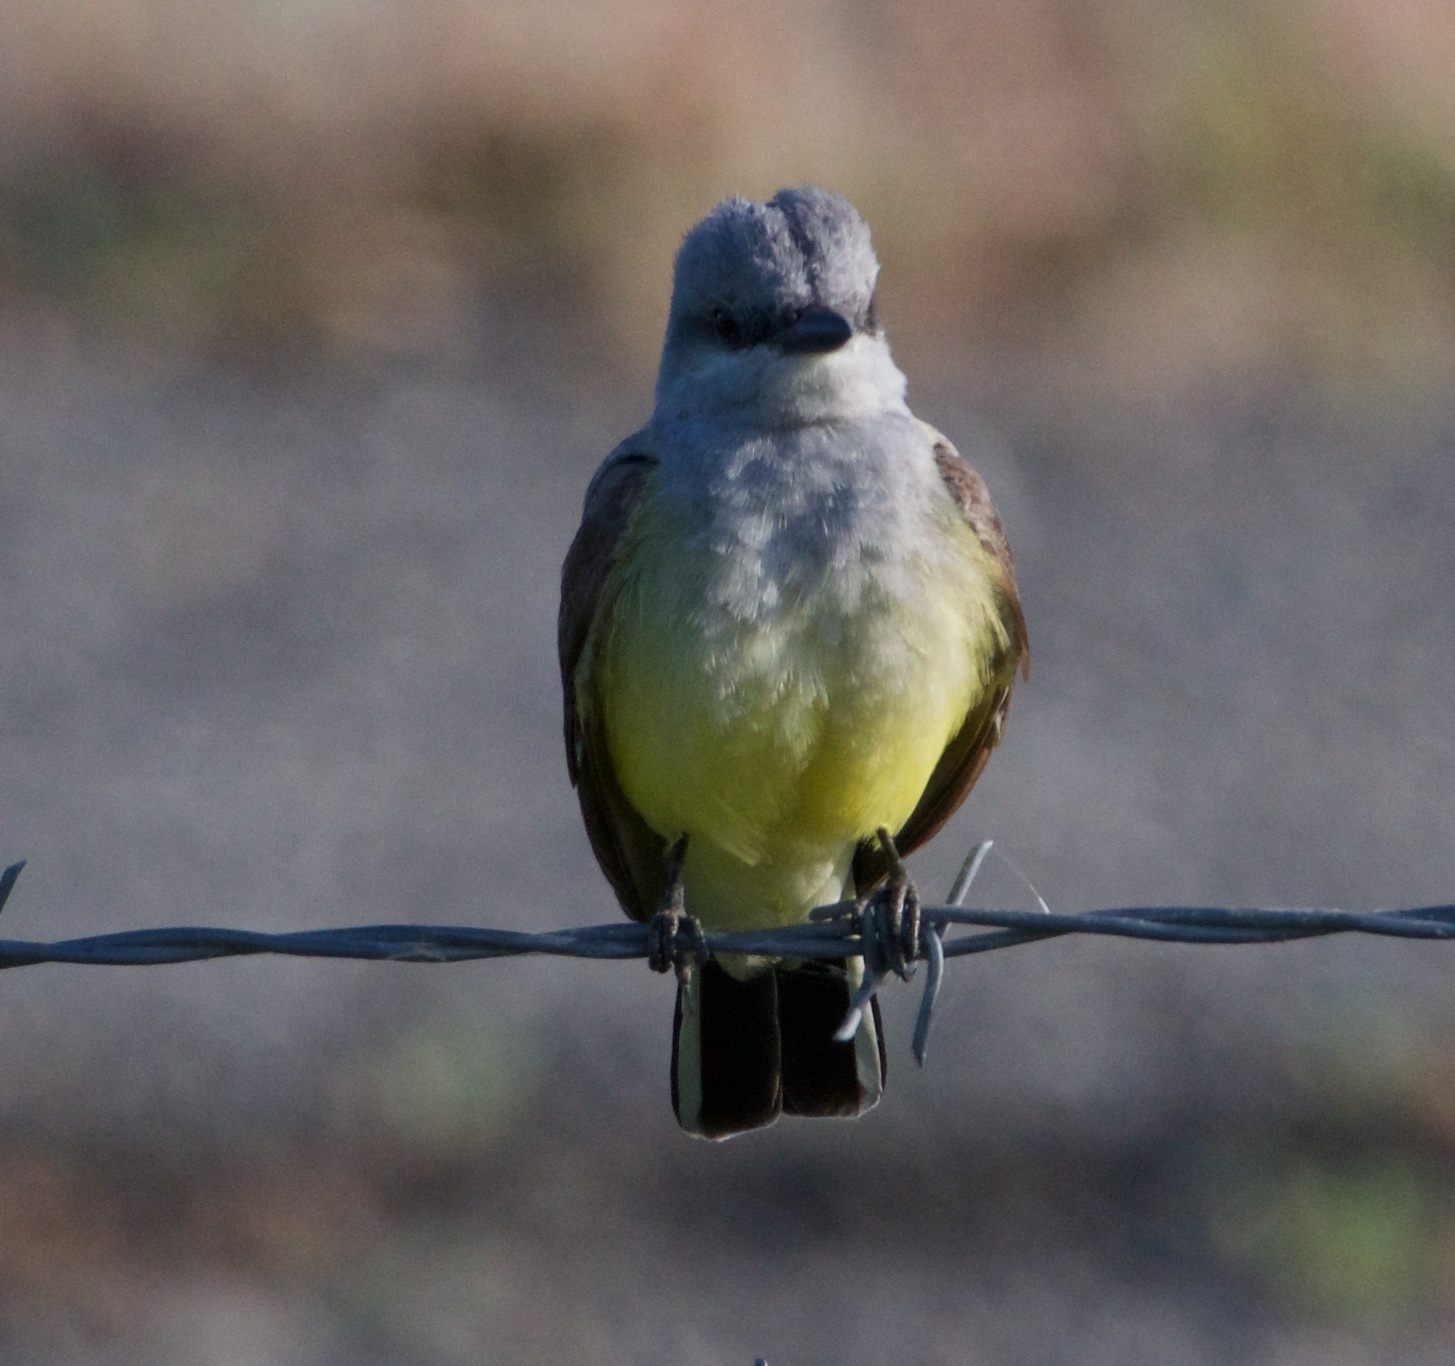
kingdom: Animalia
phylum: Chordata
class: Aves
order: Passeriformes
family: Tyrannidae
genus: Tyrannus
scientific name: Tyrannus verticalis
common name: Western kingbird
